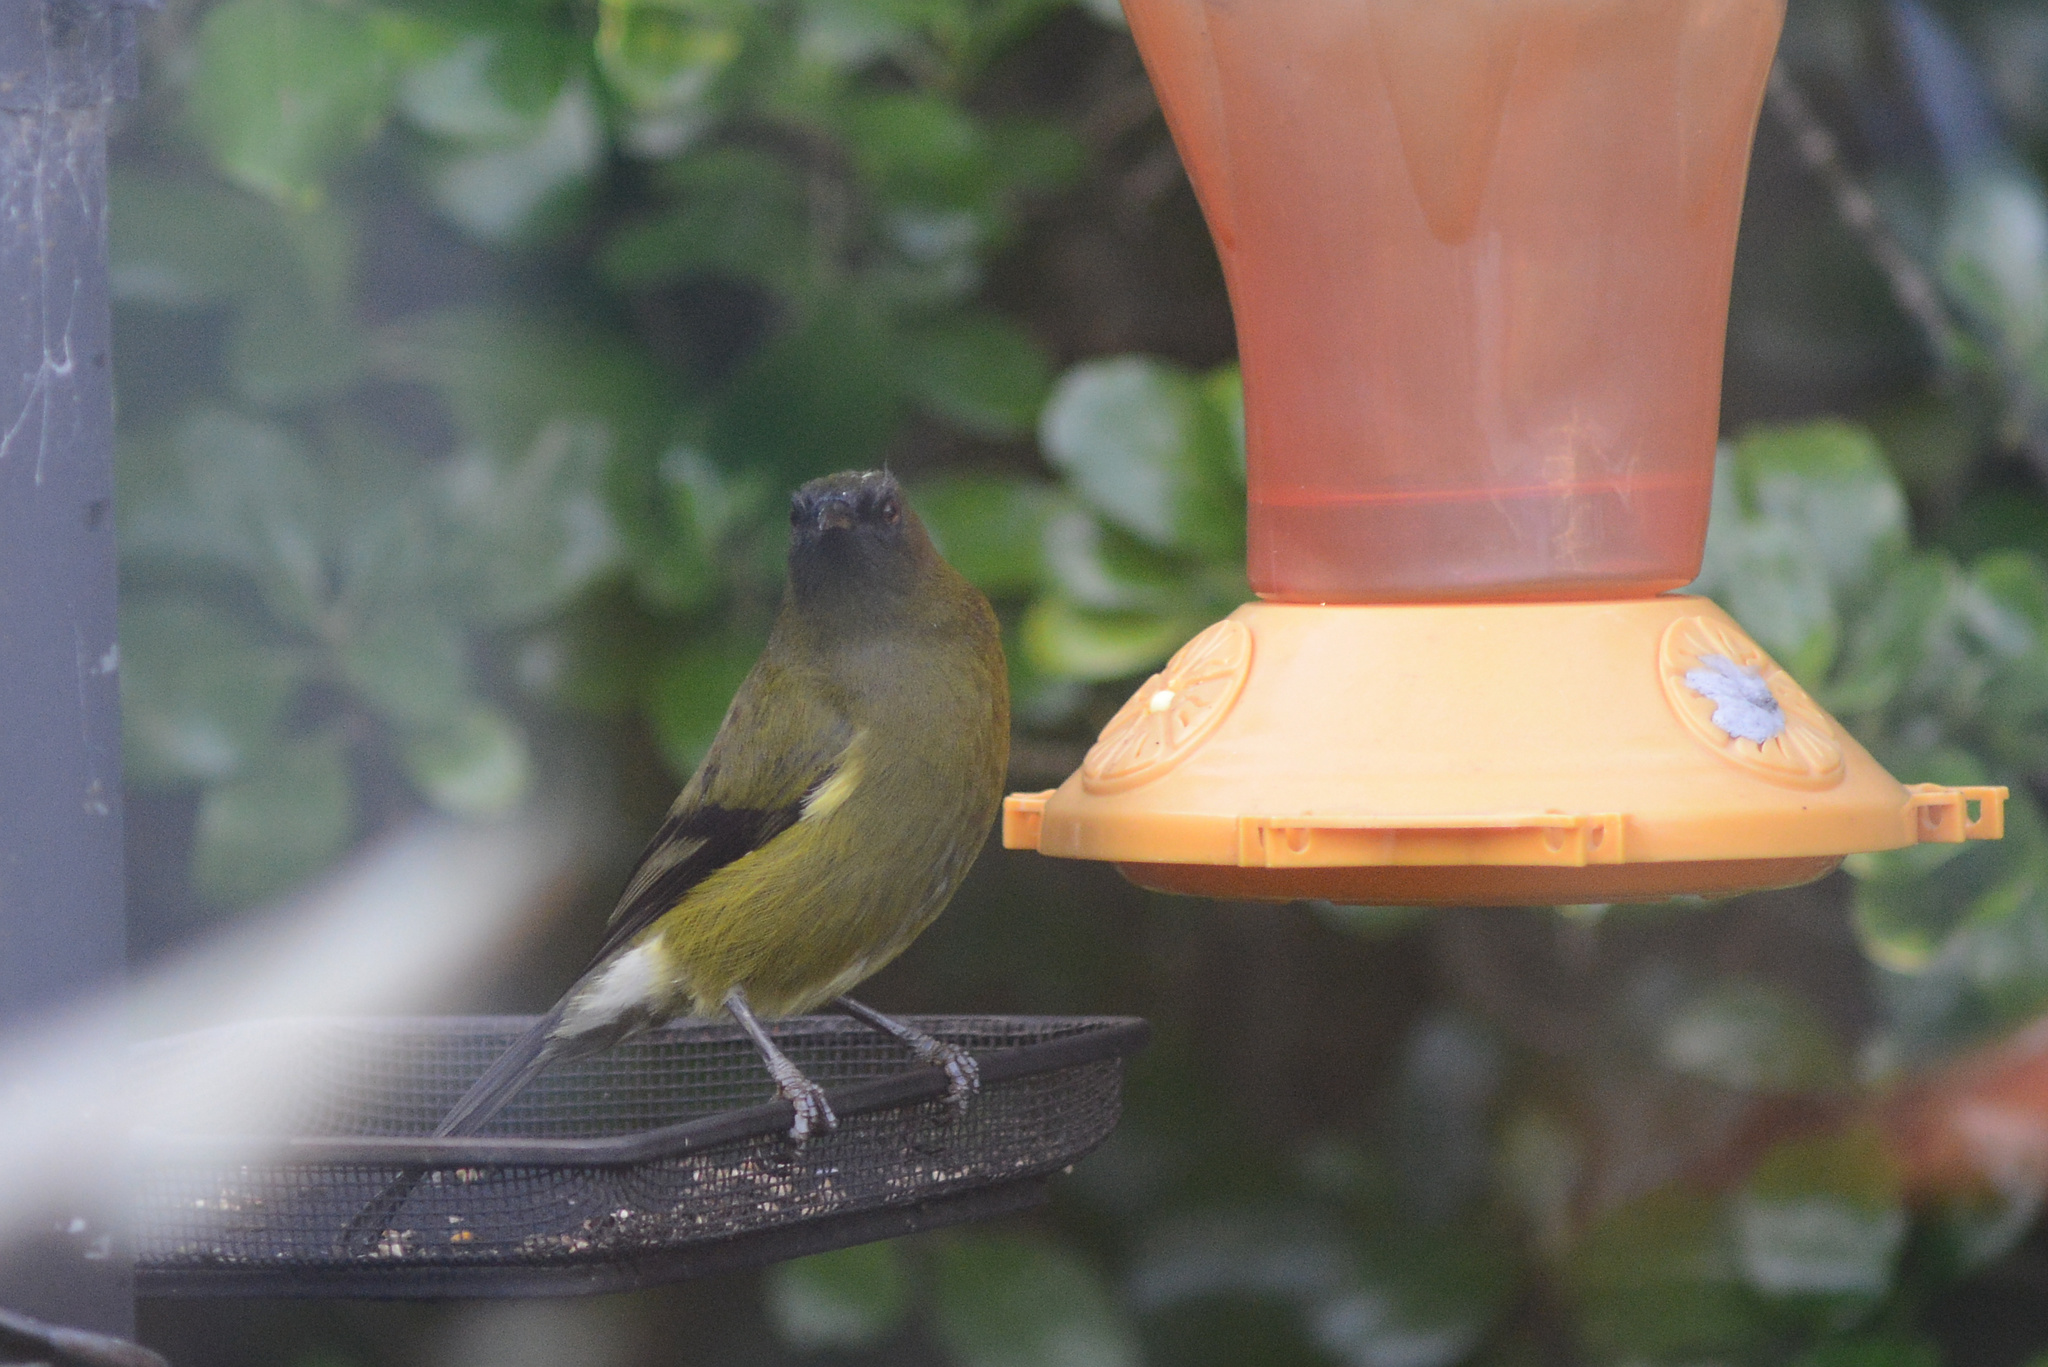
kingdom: Animalia
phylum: Chordata
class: Aves
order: Passeriformes
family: Meliphagidae
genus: Anthornis
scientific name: Anthornis melanura
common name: New zealand bellbird
